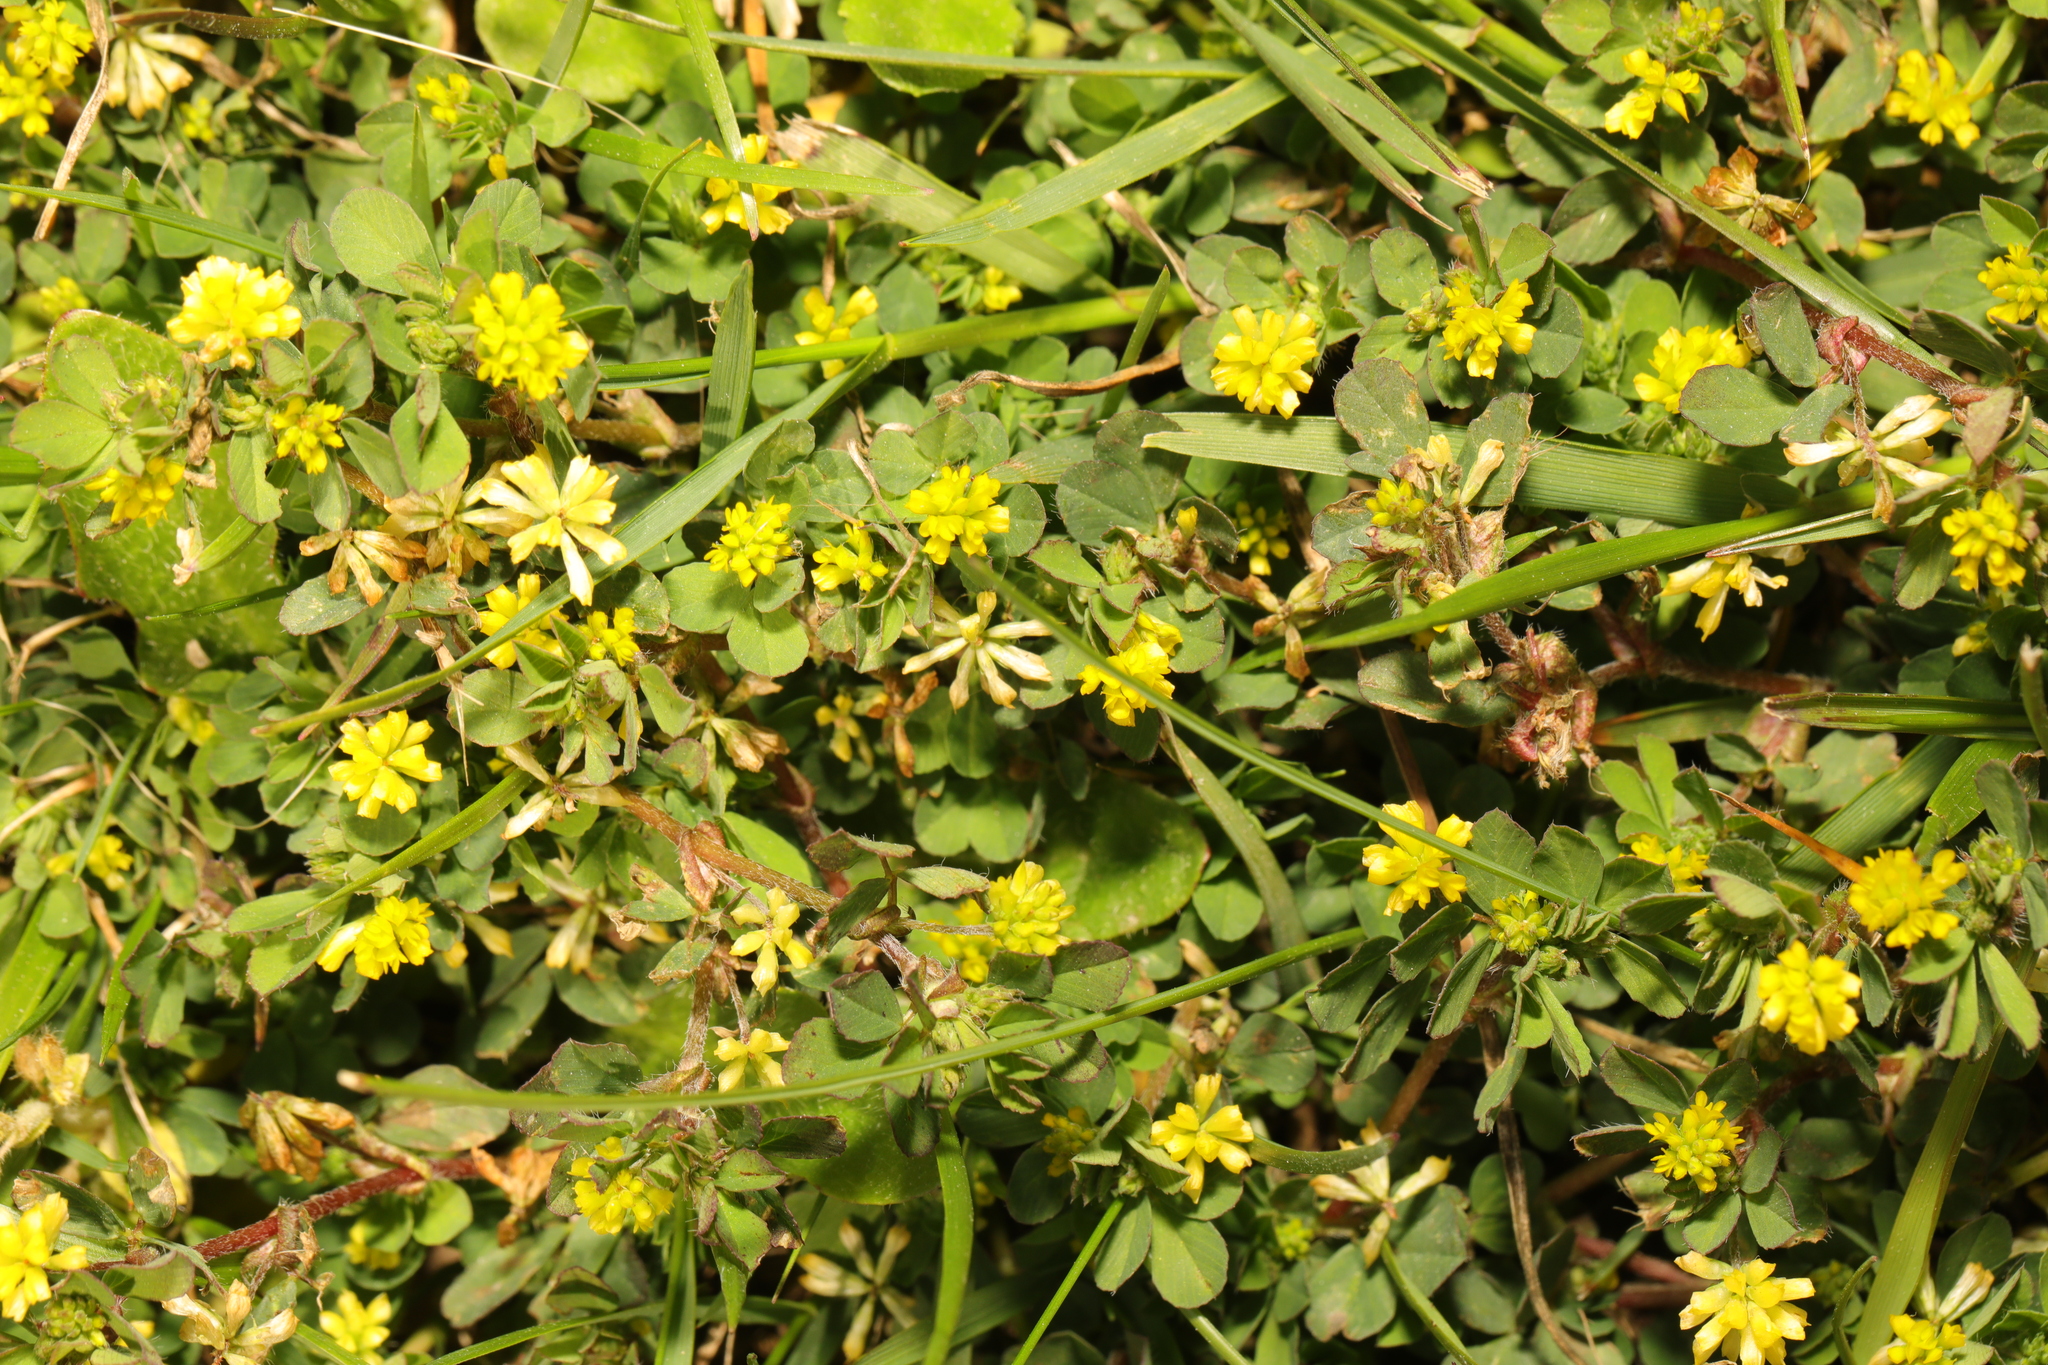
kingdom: Plantae
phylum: Tracheophyta
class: Magnoliopsida
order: Fabales
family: Fabaceae
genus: Trifolium
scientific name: Trifolium dubium
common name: Suckling clover
